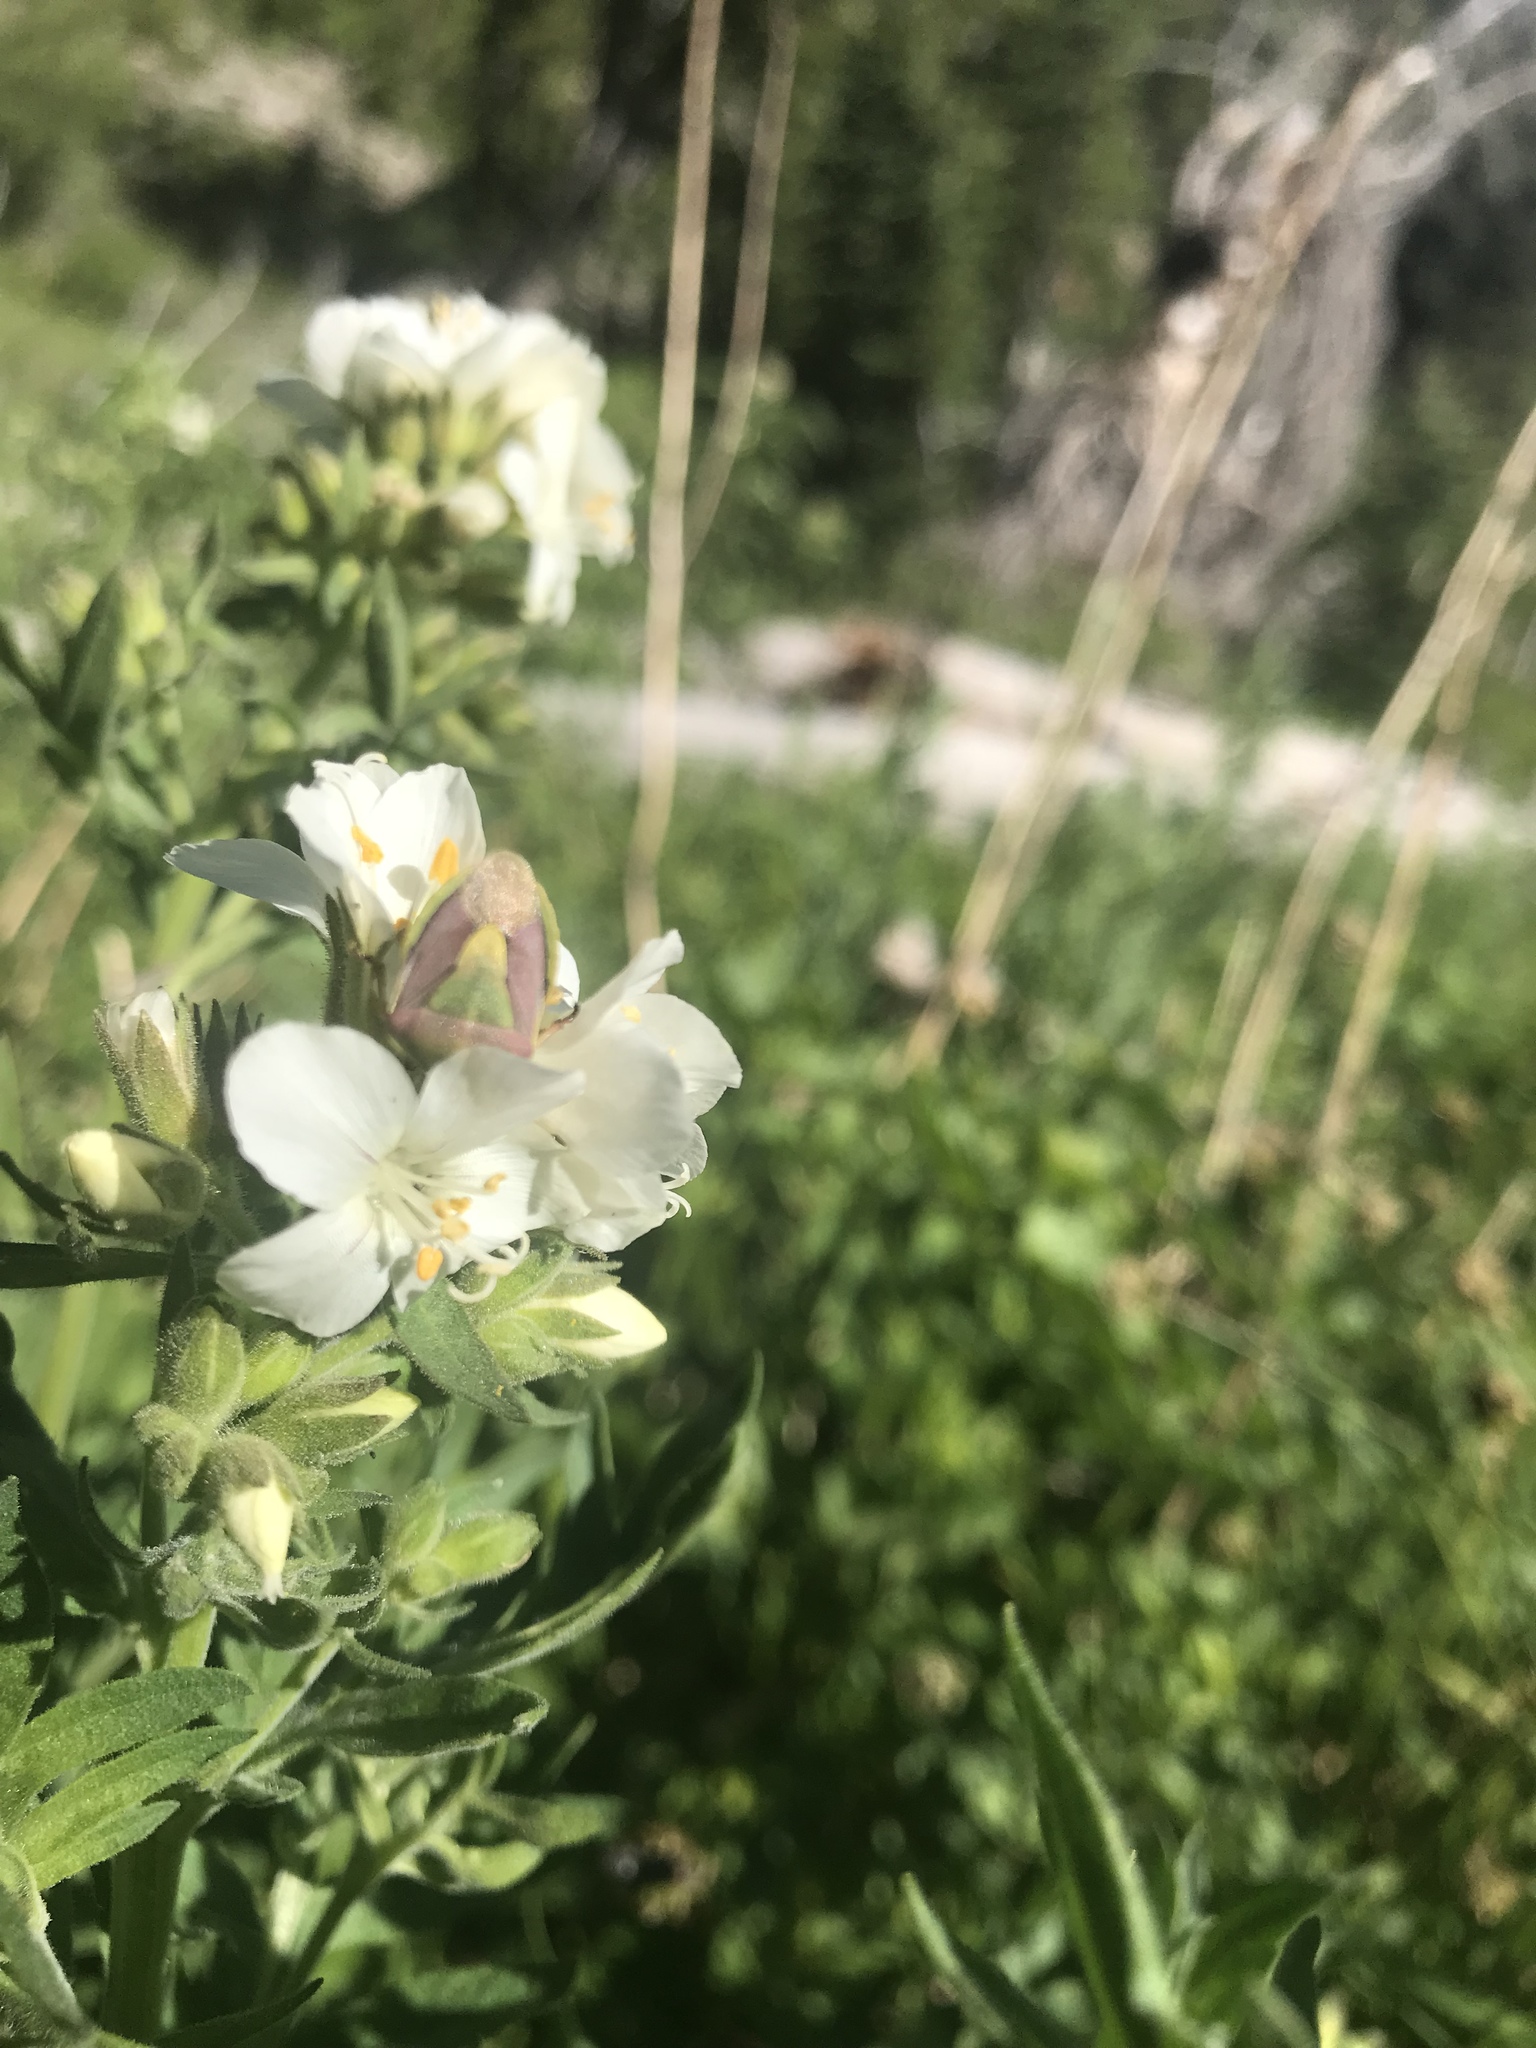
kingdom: Plantae
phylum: Tracheophyta
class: Magnoliopsida
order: Ericales
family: Polemoniaceae
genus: Polemonium
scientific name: Polemonium foliosissimum
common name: Leafy jacob's-ladder
